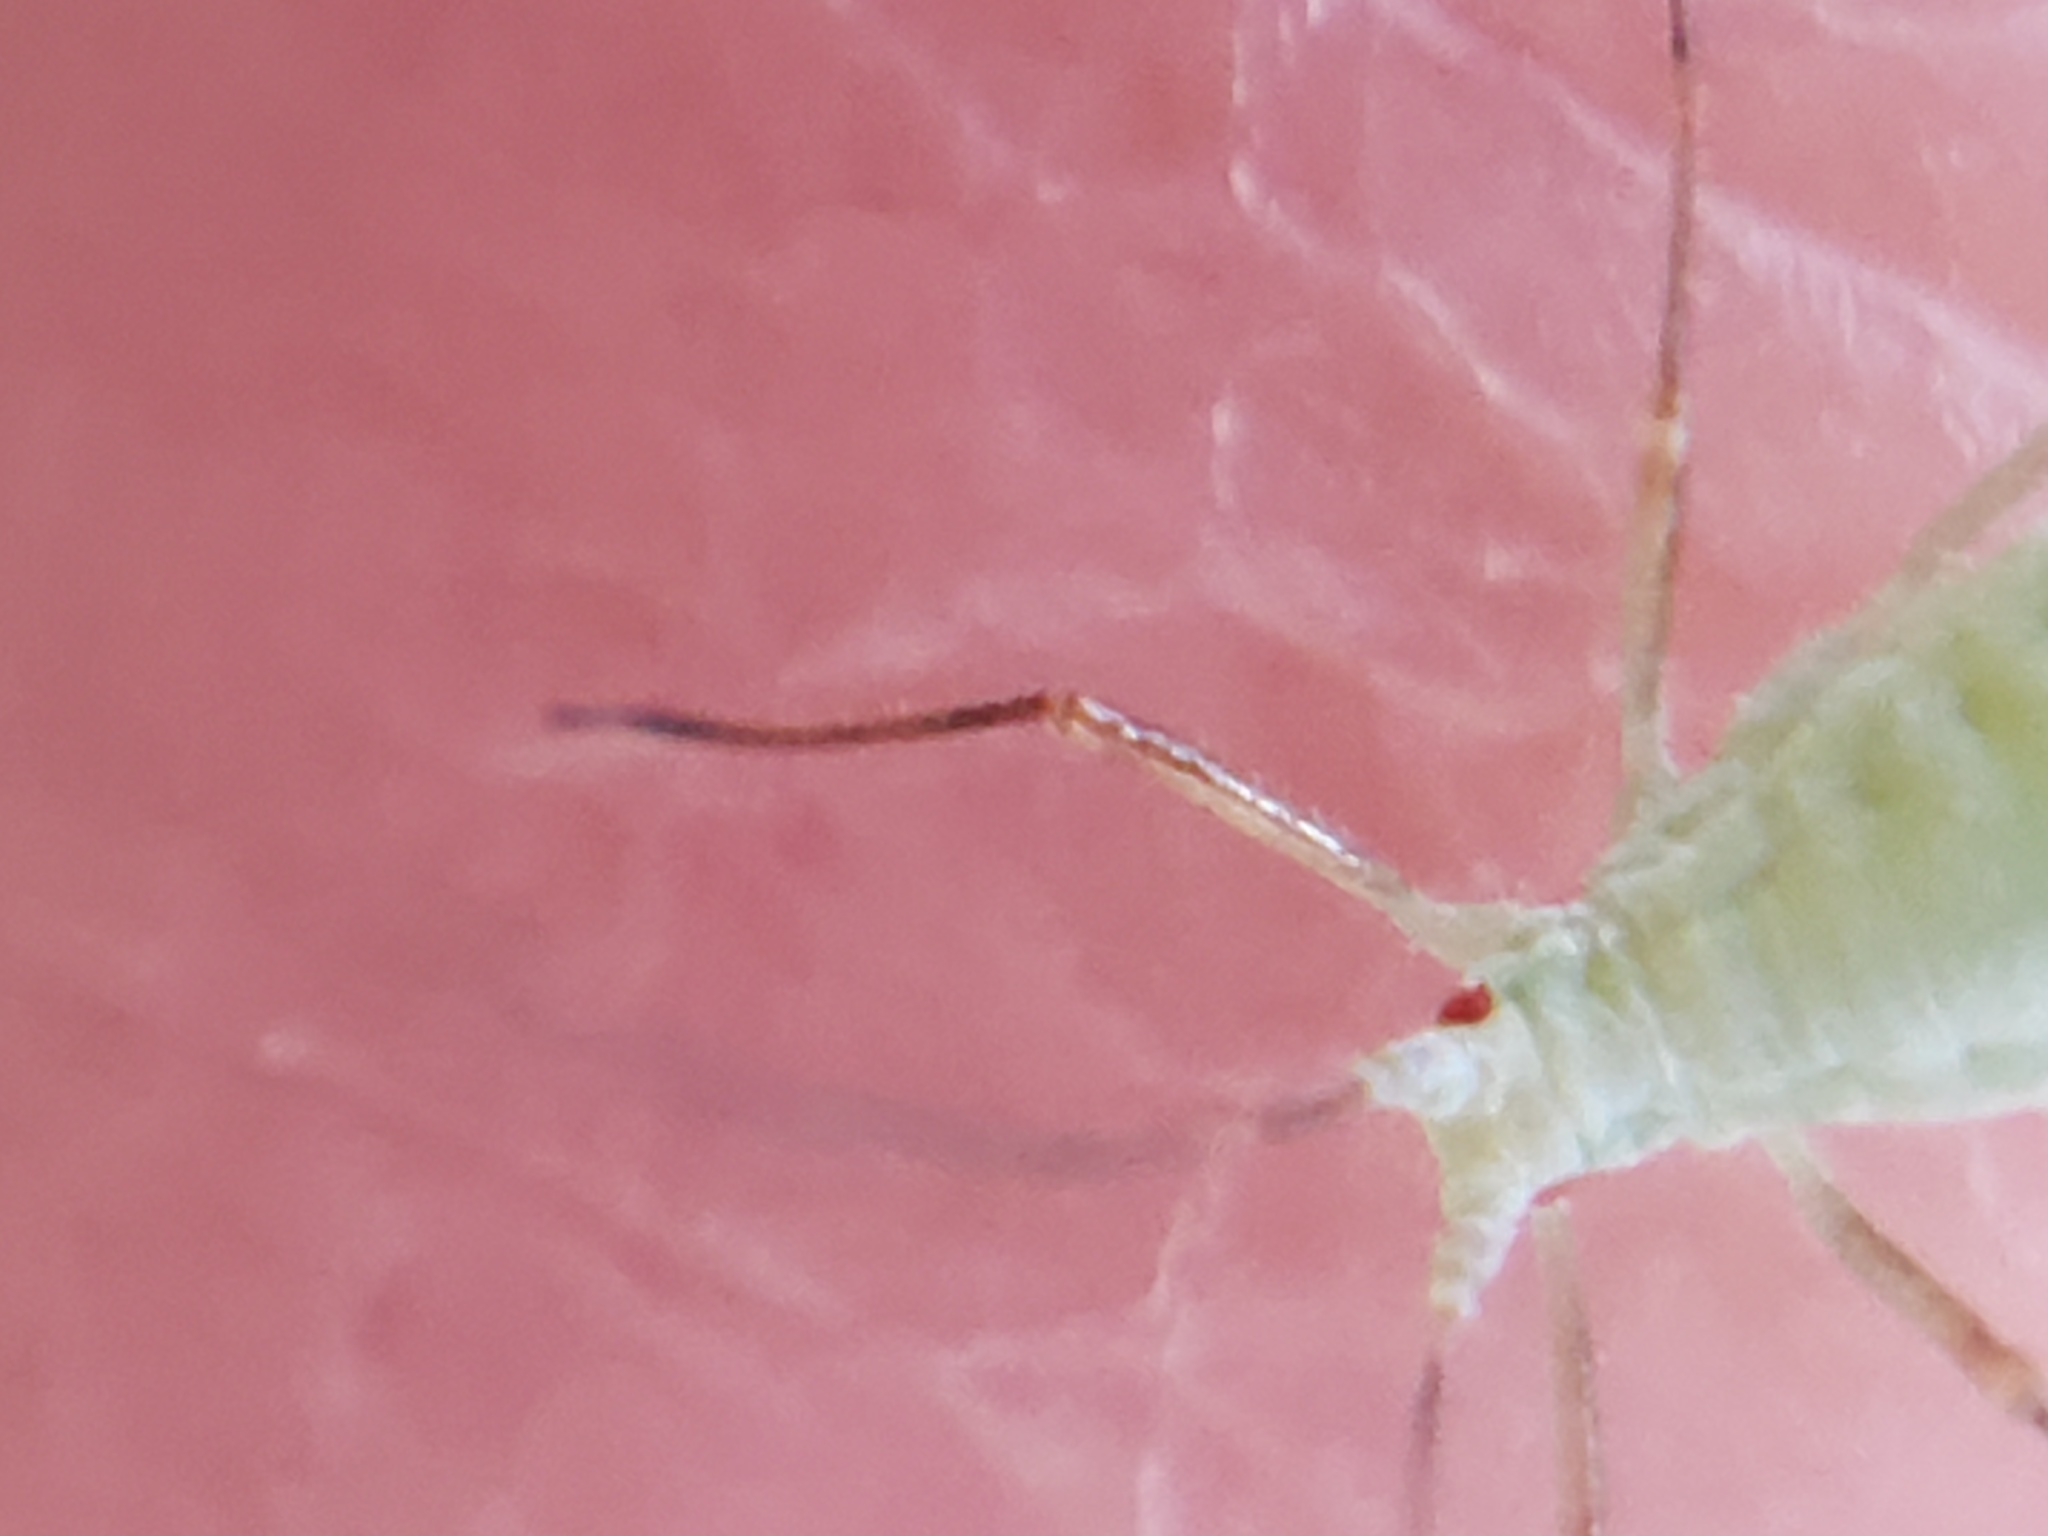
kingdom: Animalia
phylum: Arthropoda
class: Insecta
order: Hemiptera
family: Aphididae
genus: Macrosiphoniella
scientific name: Macrosiphoniella artemisiae
